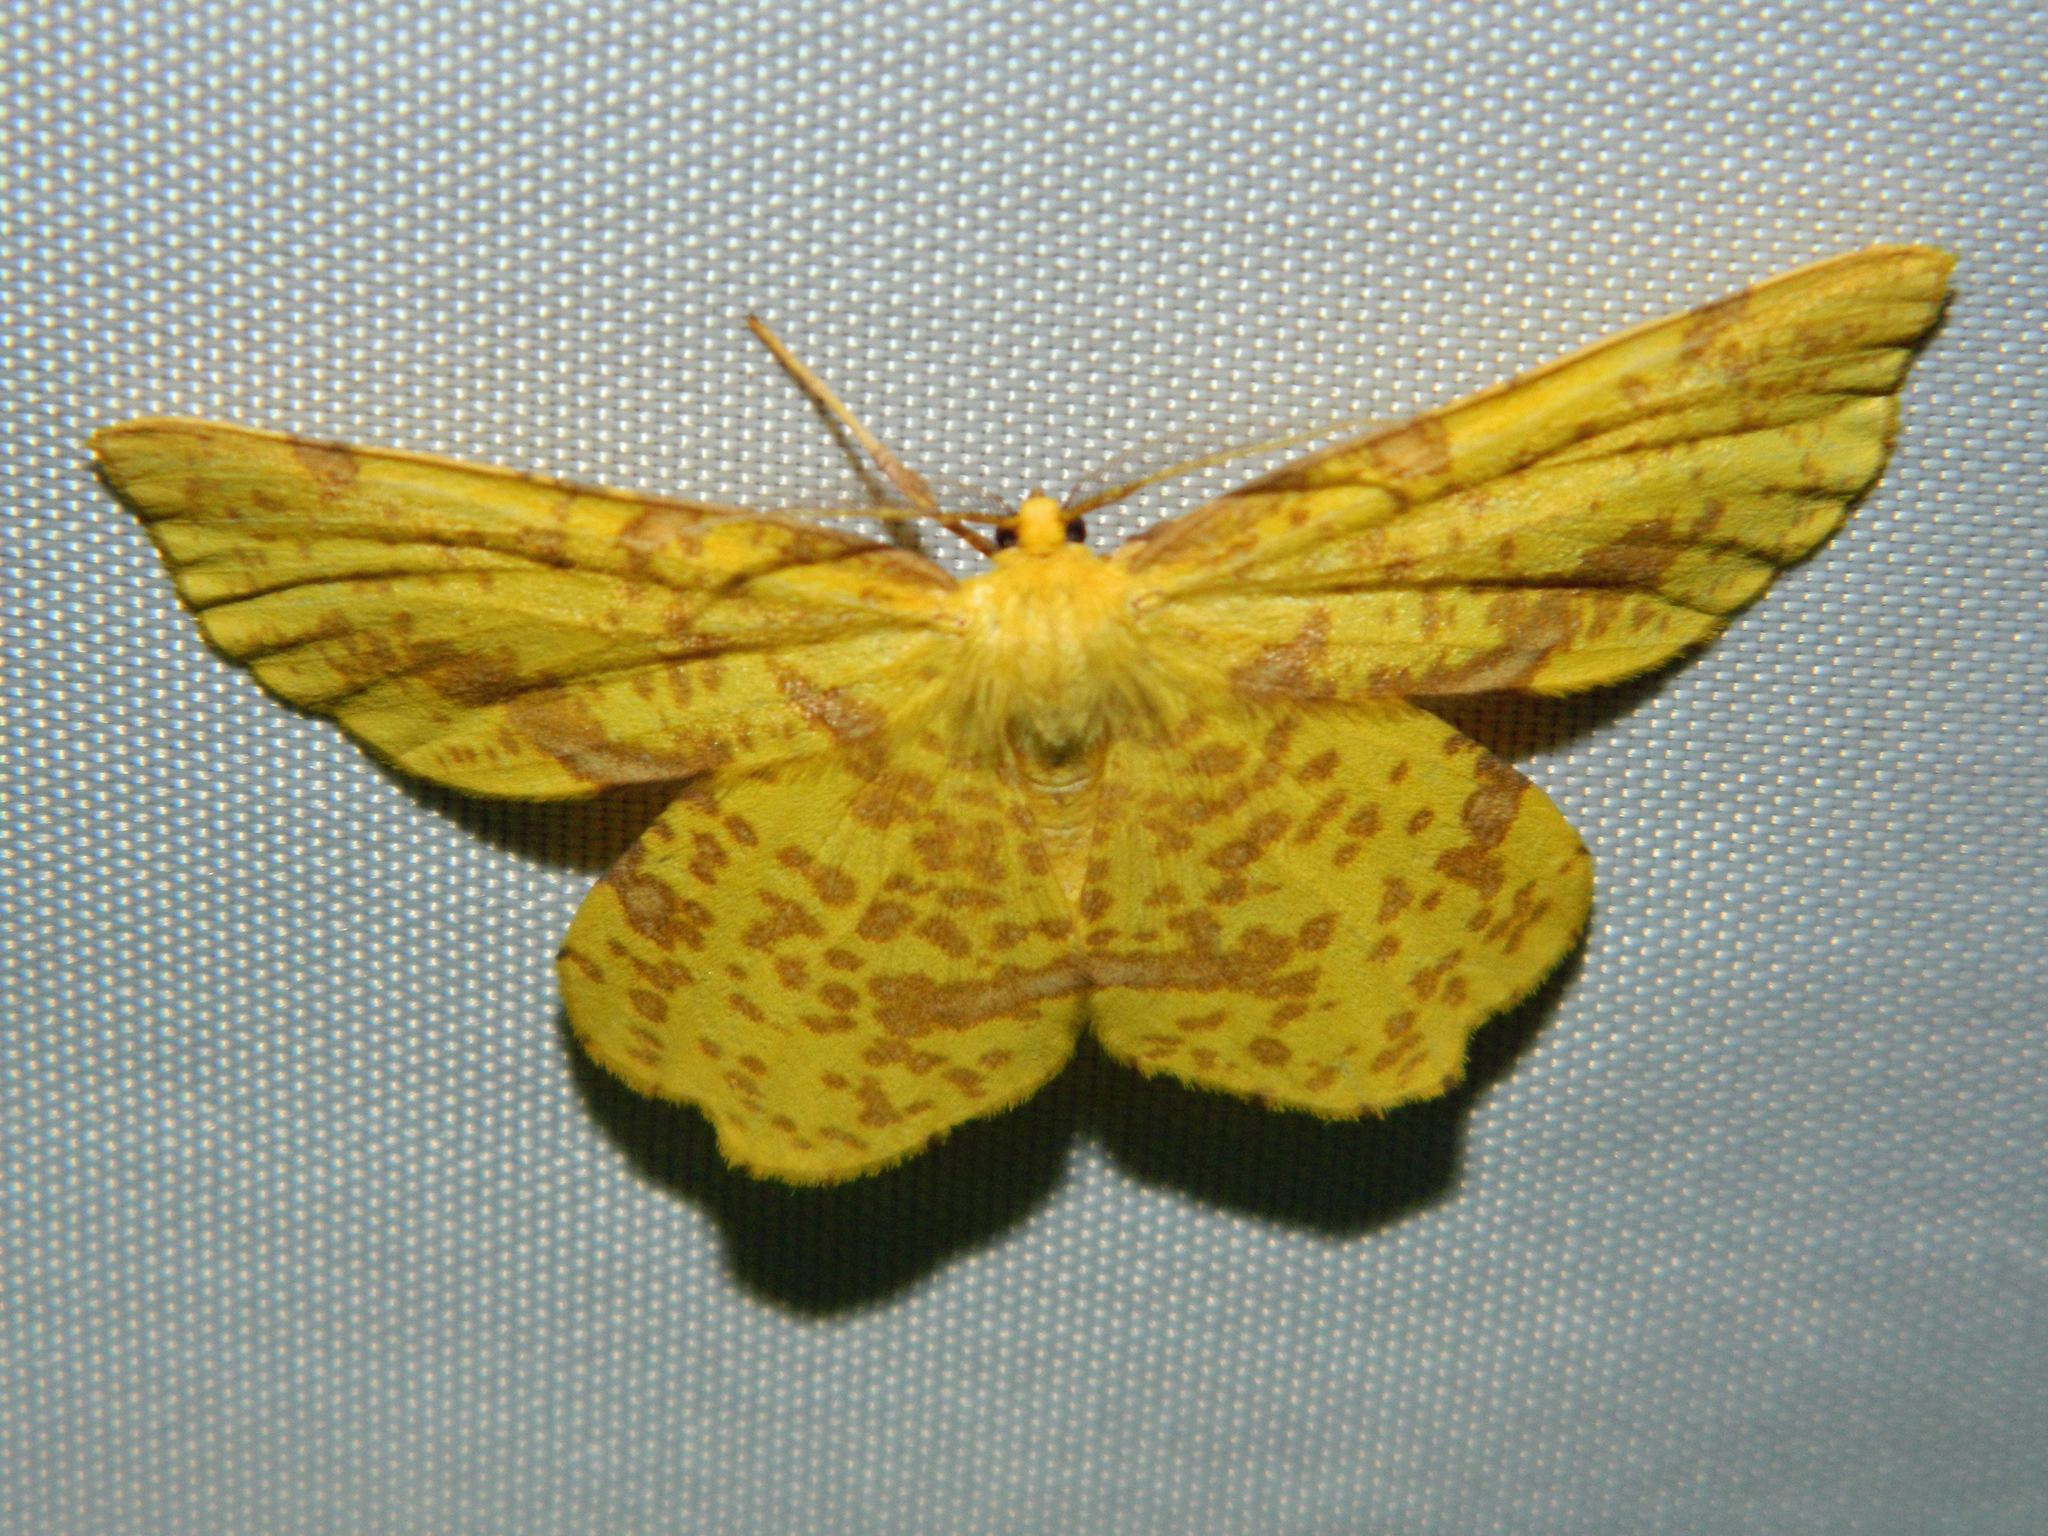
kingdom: Animalia
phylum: Arthropoda
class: Insecta
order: Lepidoptera
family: Geometridae
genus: Xanthotype
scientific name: Xanthotype
